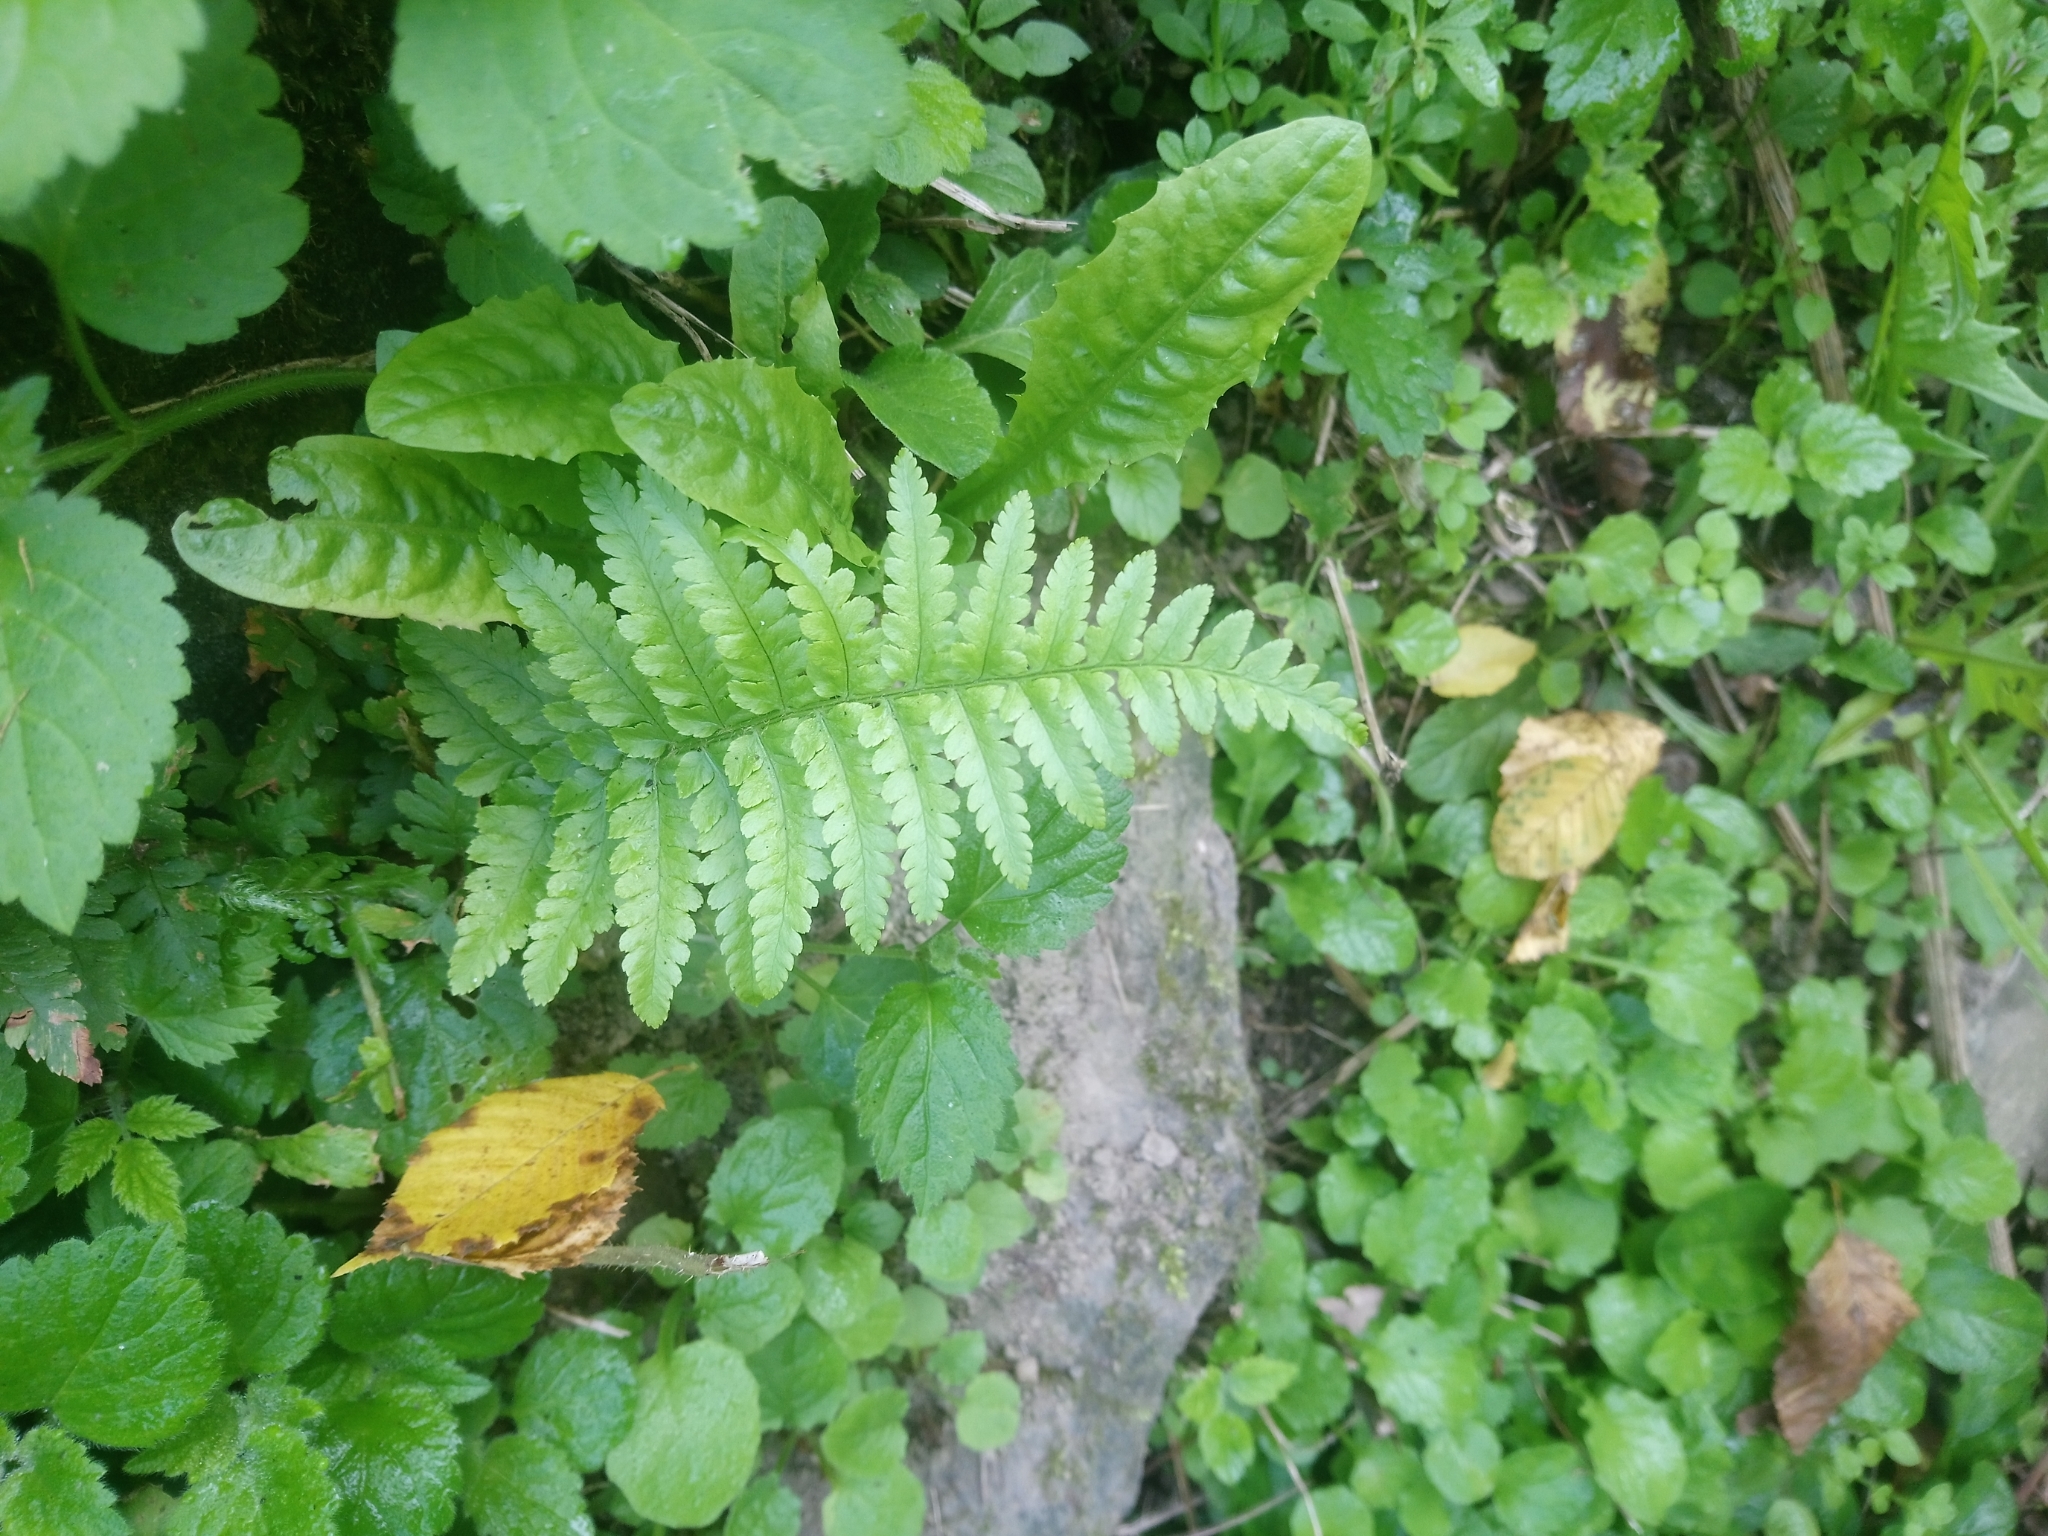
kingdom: Plantae
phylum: Tracheophyta
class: Polypodiopsida
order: Polypodiales
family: Dryopteridaceae
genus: Dryopteris
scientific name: Dryopteris filix-mas
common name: Male fern
